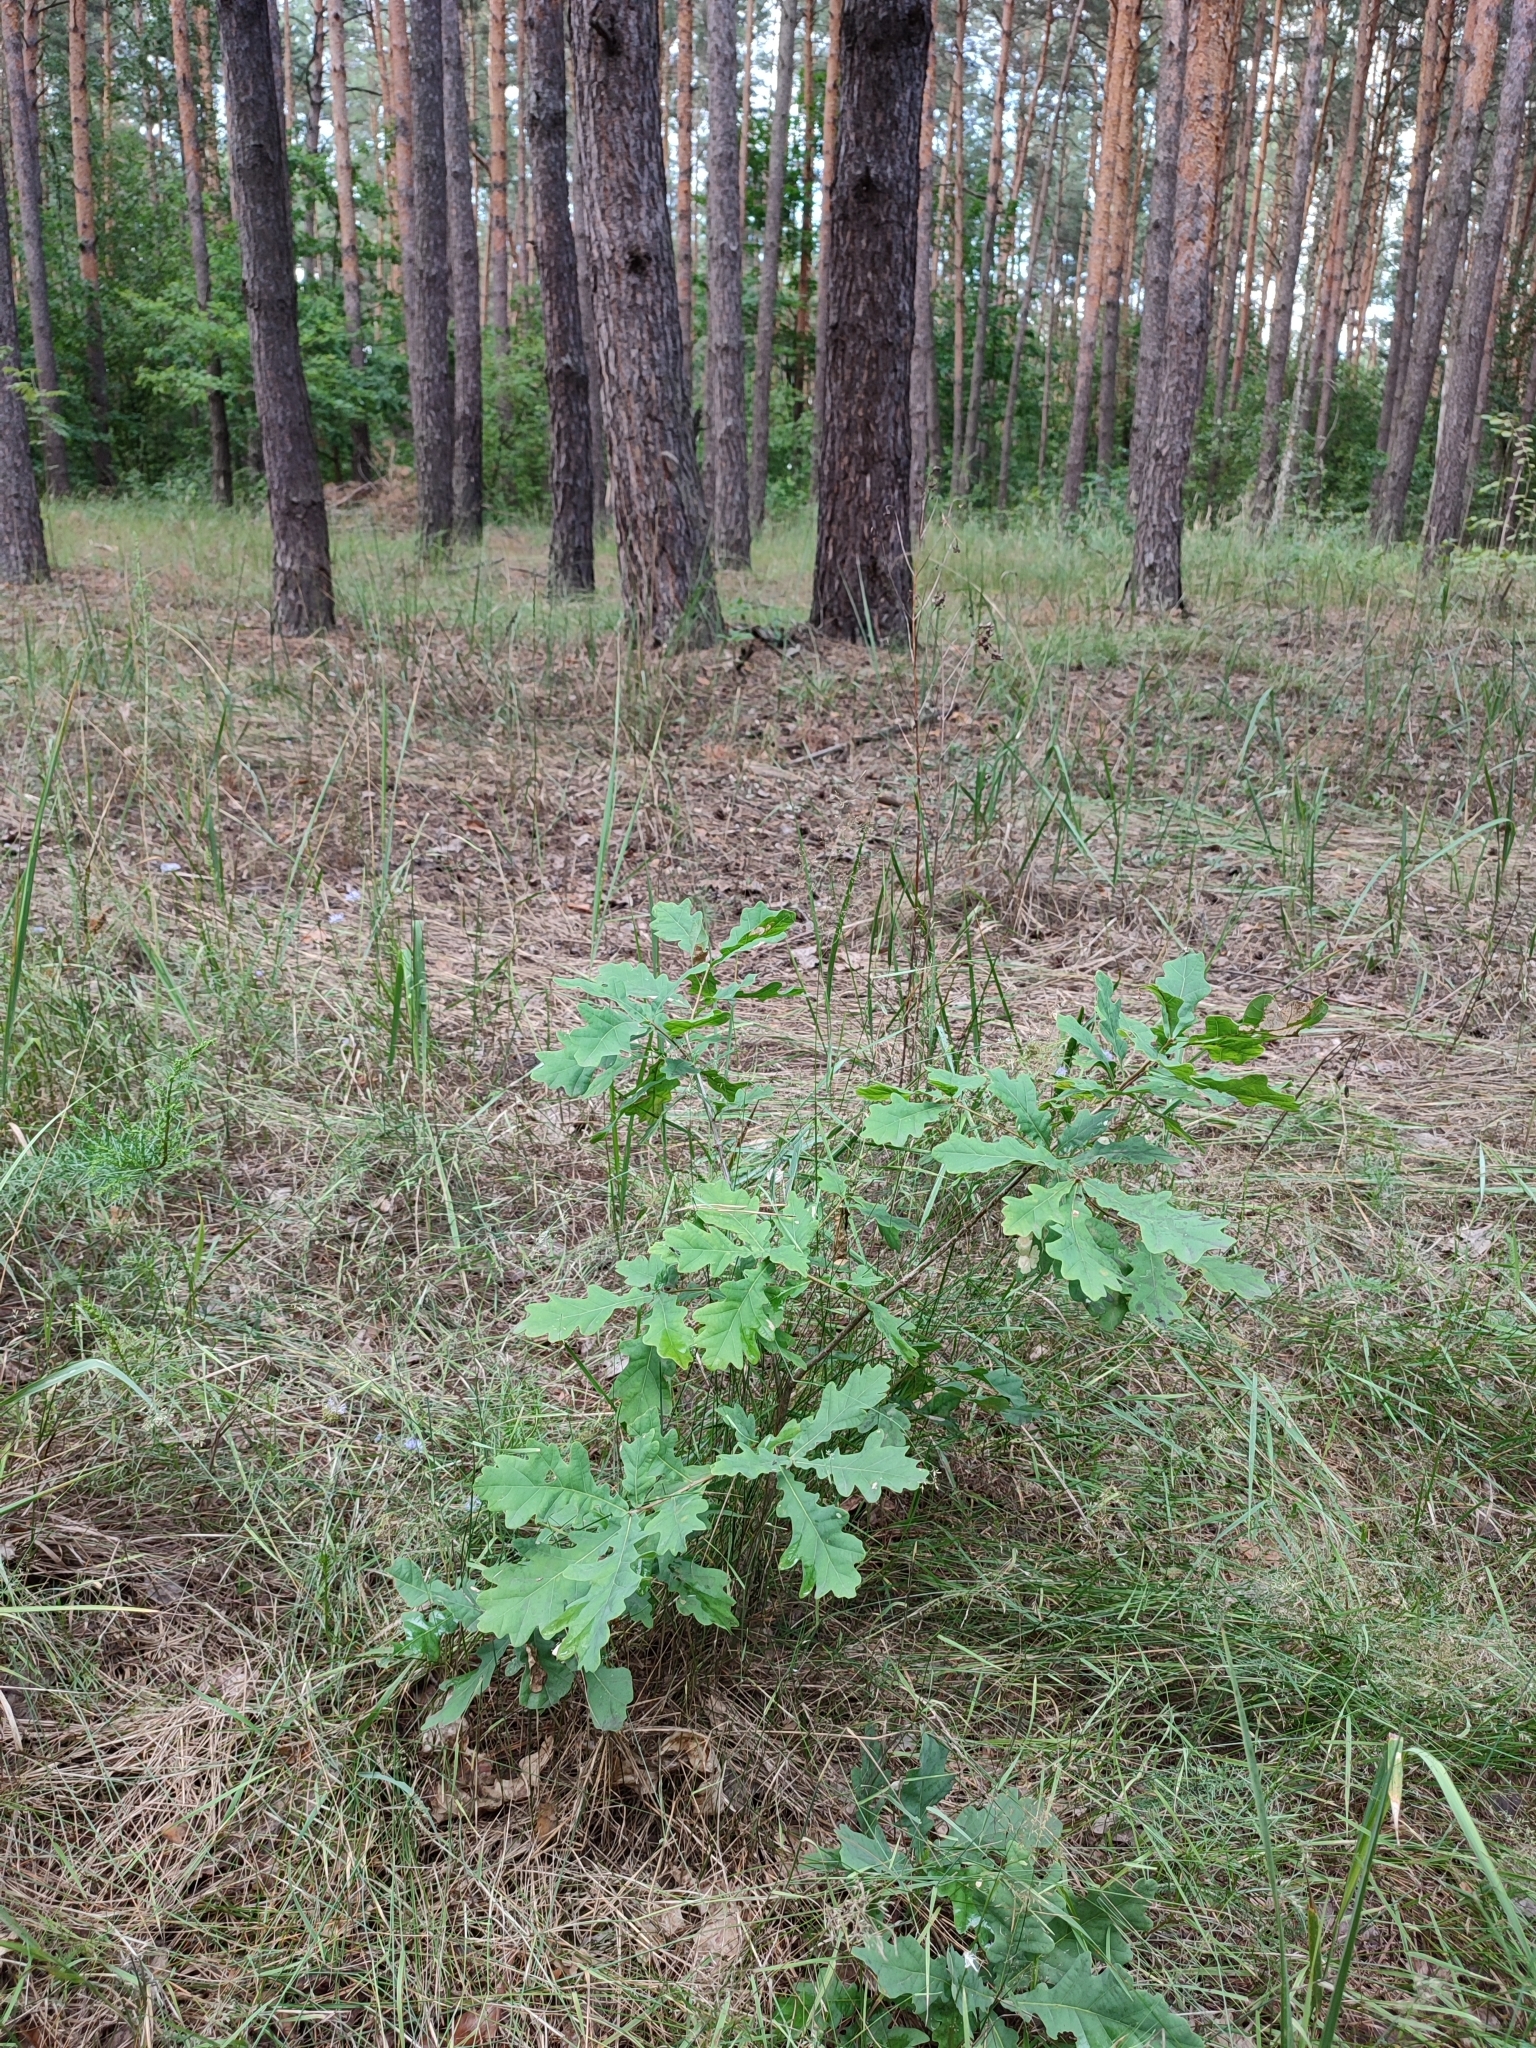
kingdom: Plantae
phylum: Tracheophyta
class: Magnoliopsida
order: Fagales
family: Fagaceae
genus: Quercus
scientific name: Quercus robur
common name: Pedunculate oak
